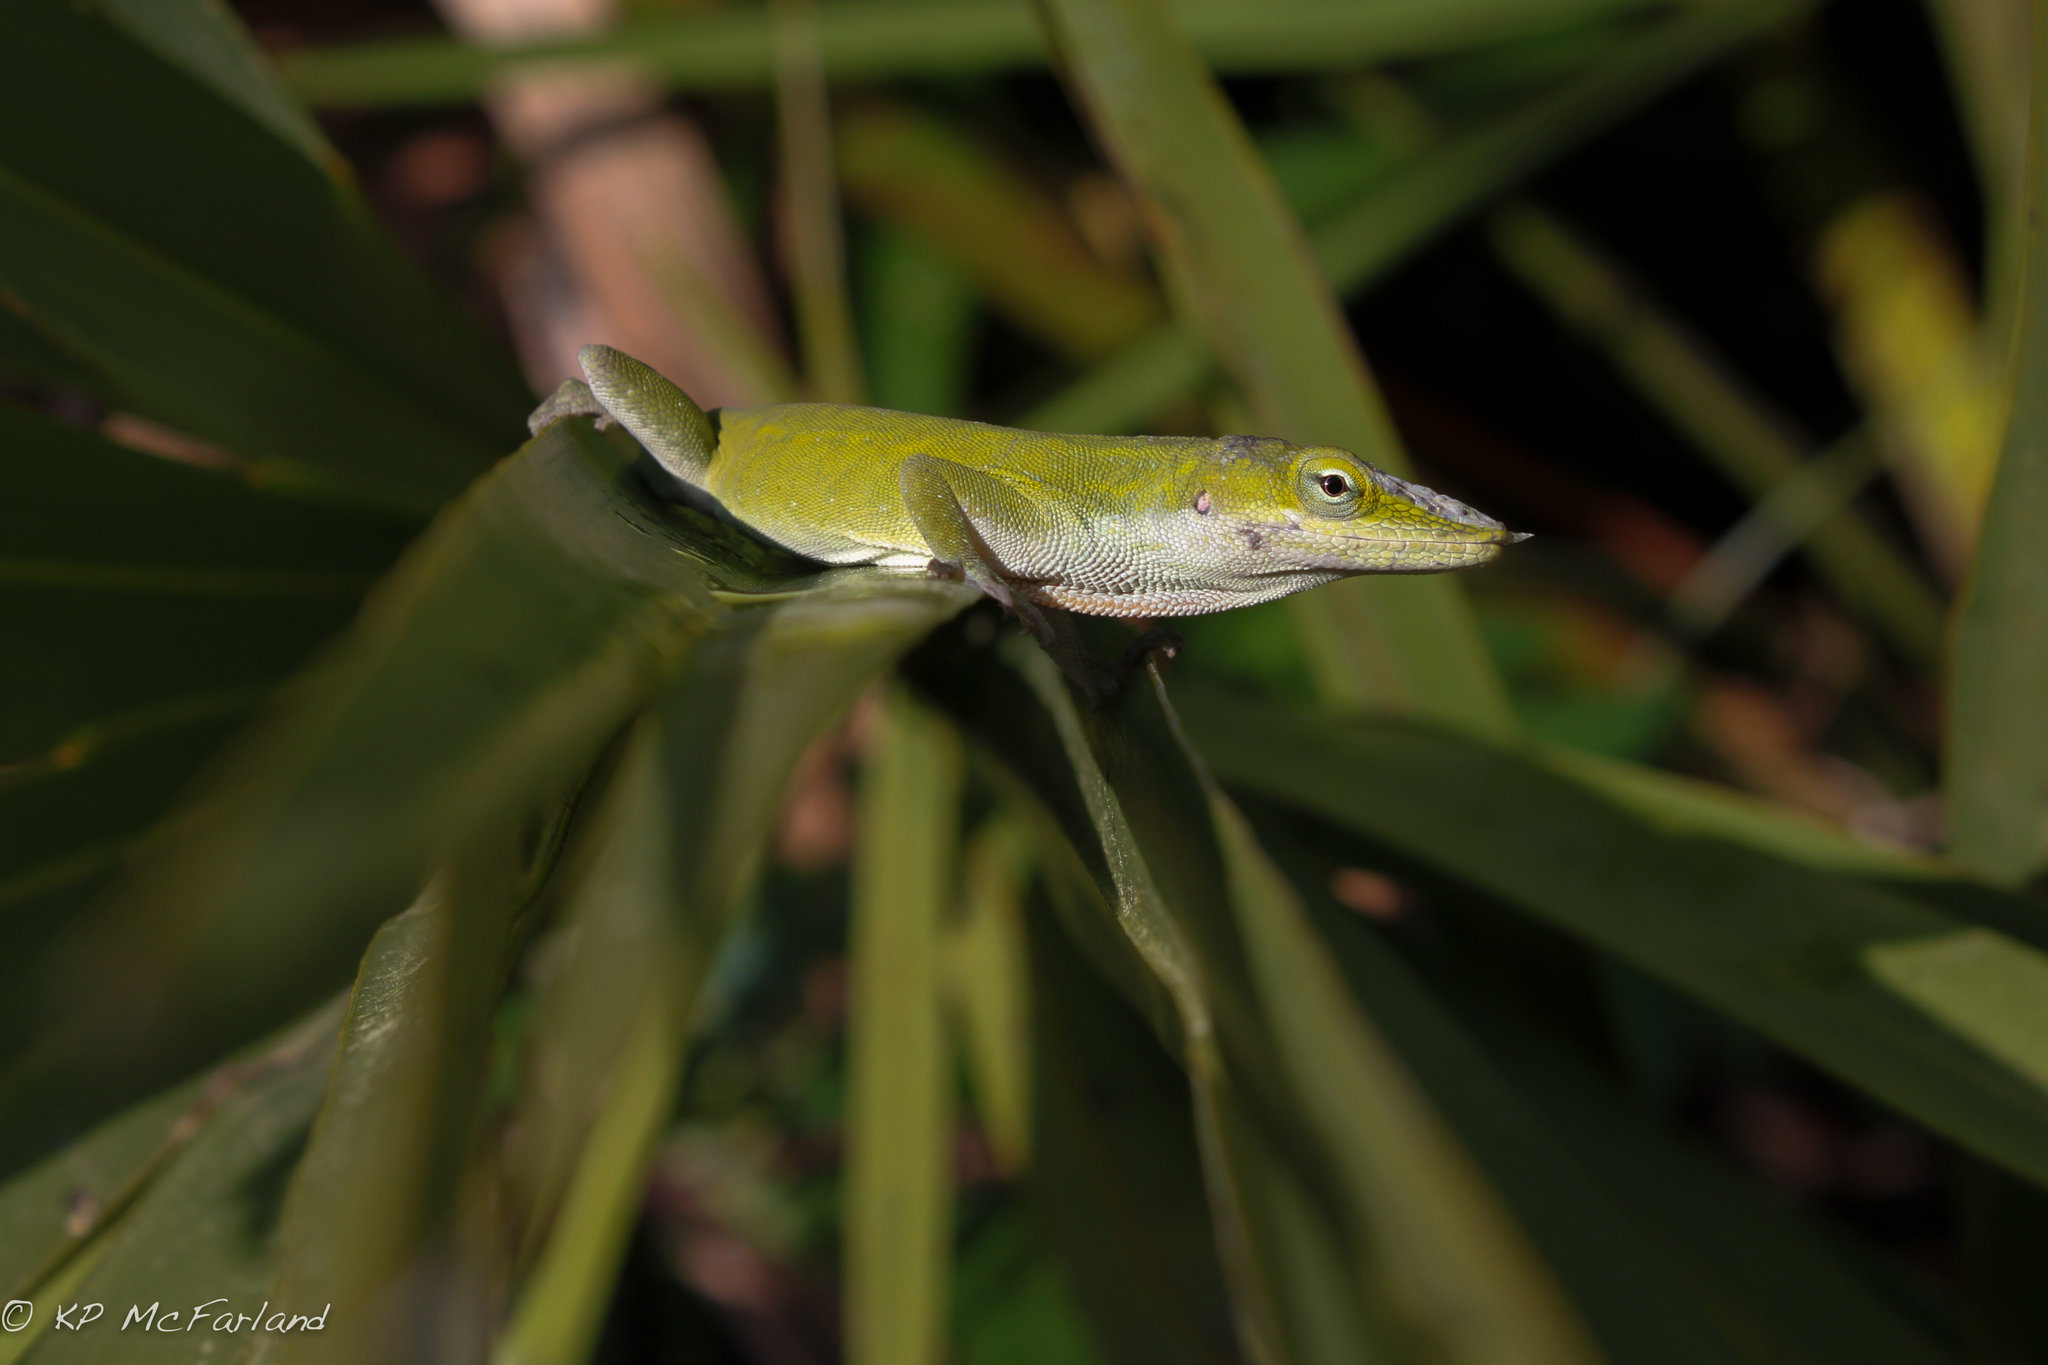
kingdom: Animalia
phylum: Chordata
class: Squamata
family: Dactyloidae
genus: Anolis
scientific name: Anolis carolinensis
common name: Green anole
